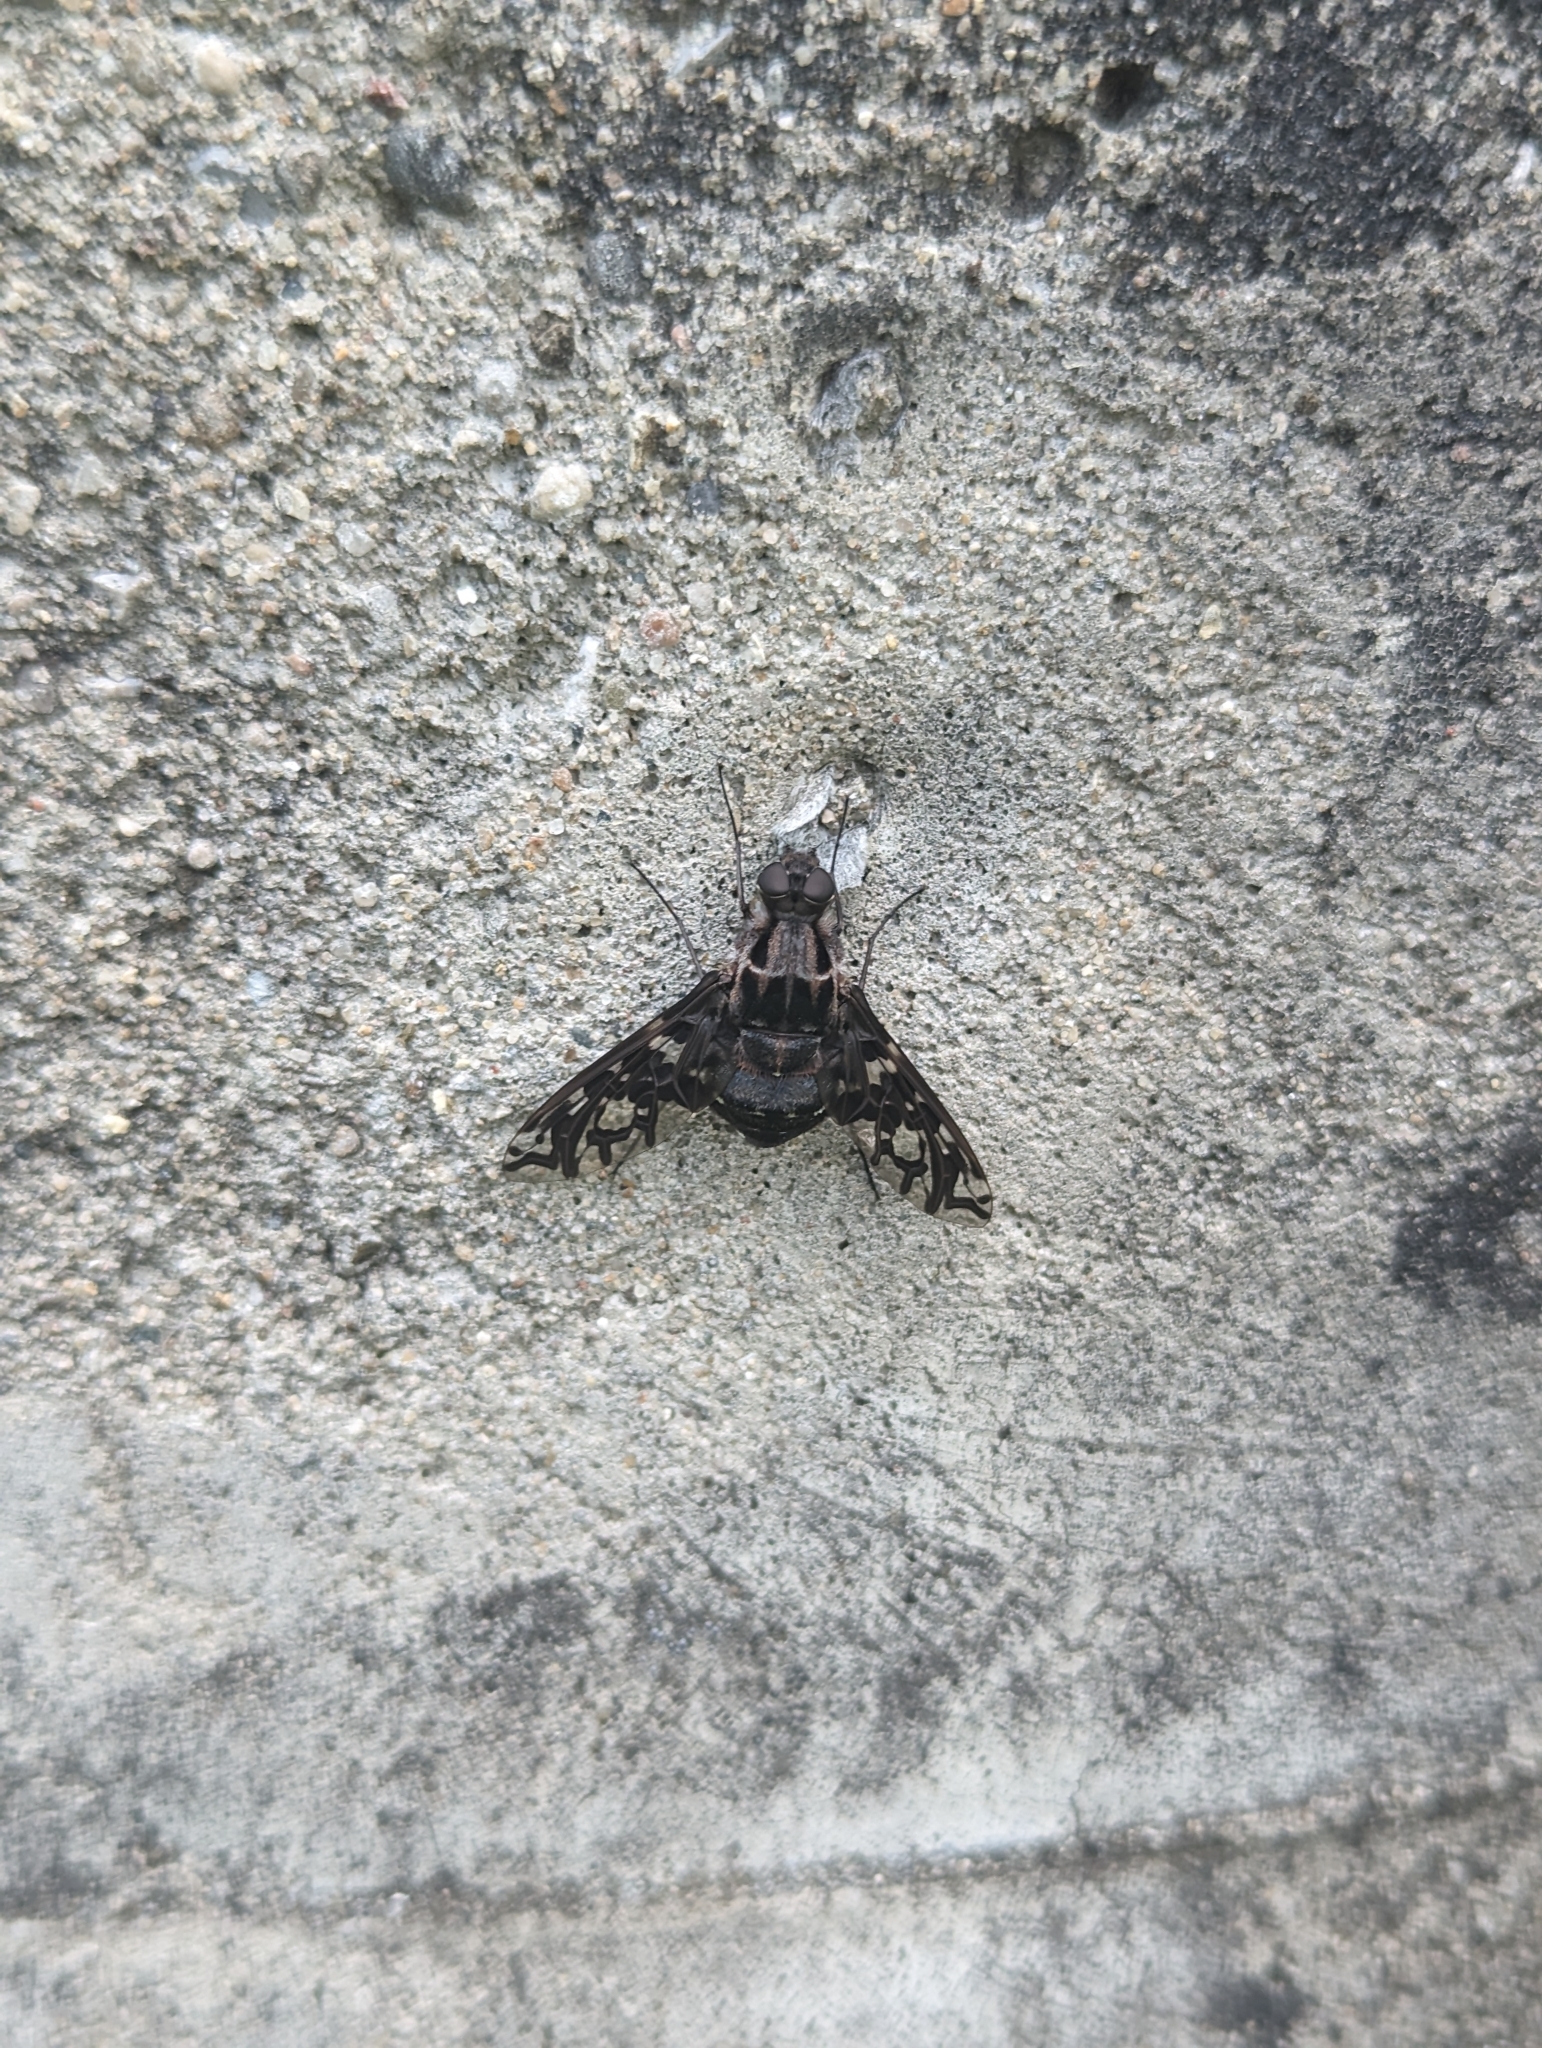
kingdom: Animalia
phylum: Arthropoda
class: Insecta
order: Diptera
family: Bombyliidae
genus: Xenox
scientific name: Xenox tigrinus
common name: Tiger bee fly
